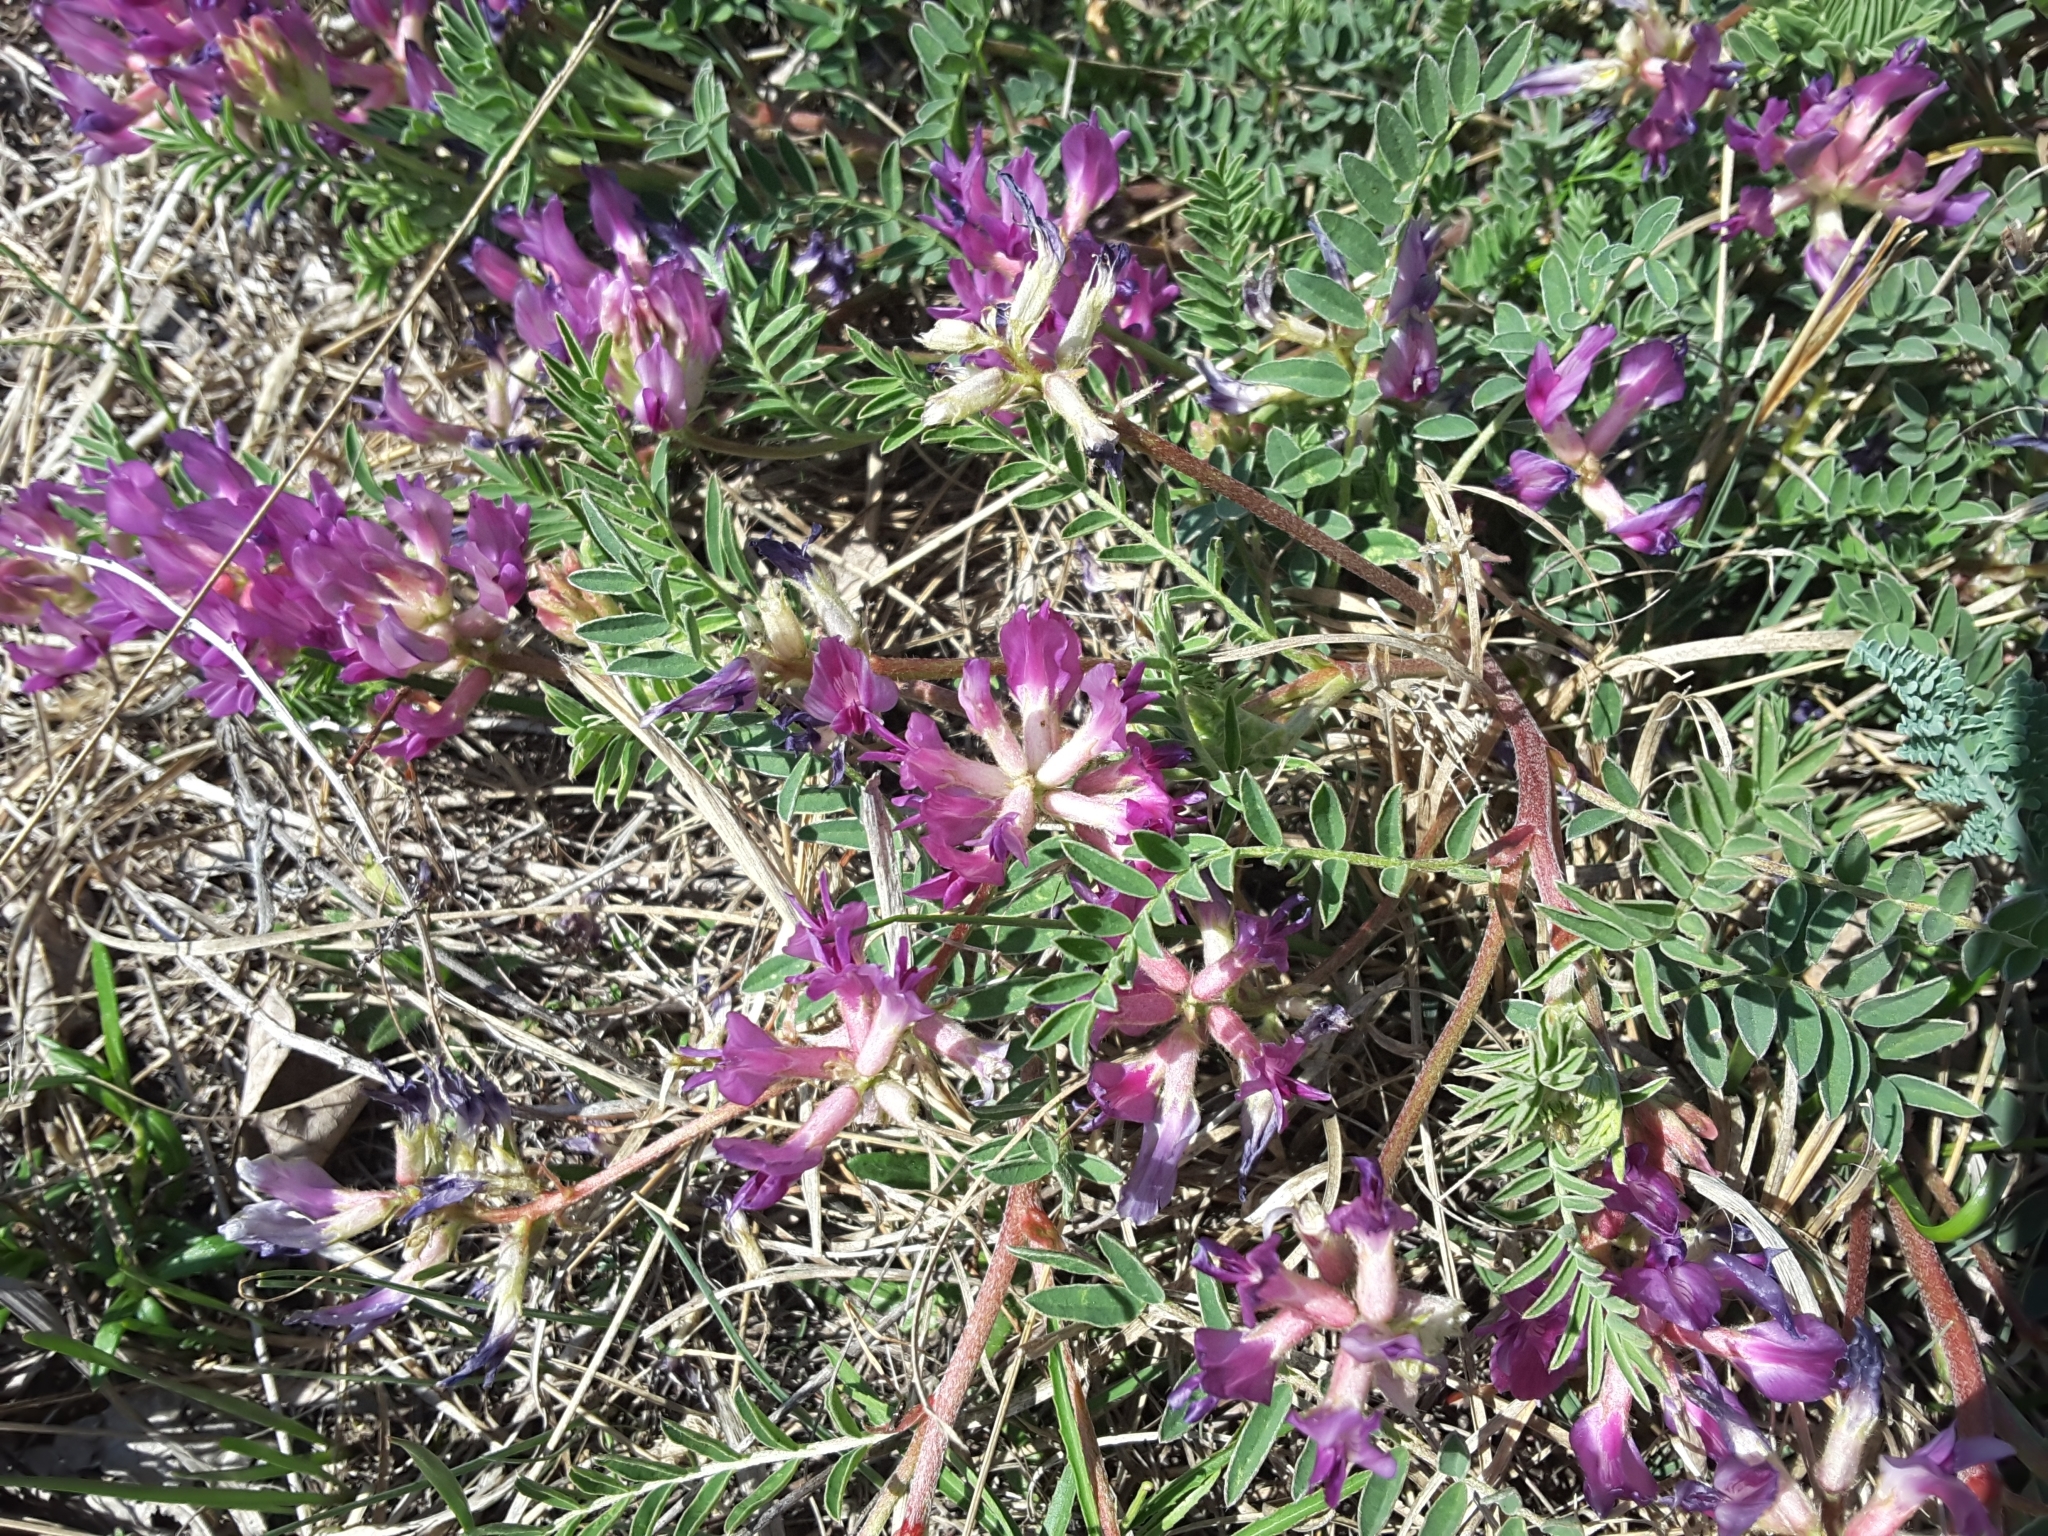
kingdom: Plantae
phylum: Tracheophyta
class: Magnoliopsida
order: Fabales
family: Fabaceae
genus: Astragalus
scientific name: Astragalus crassicarpus
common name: Ground-plum milk-vetch
